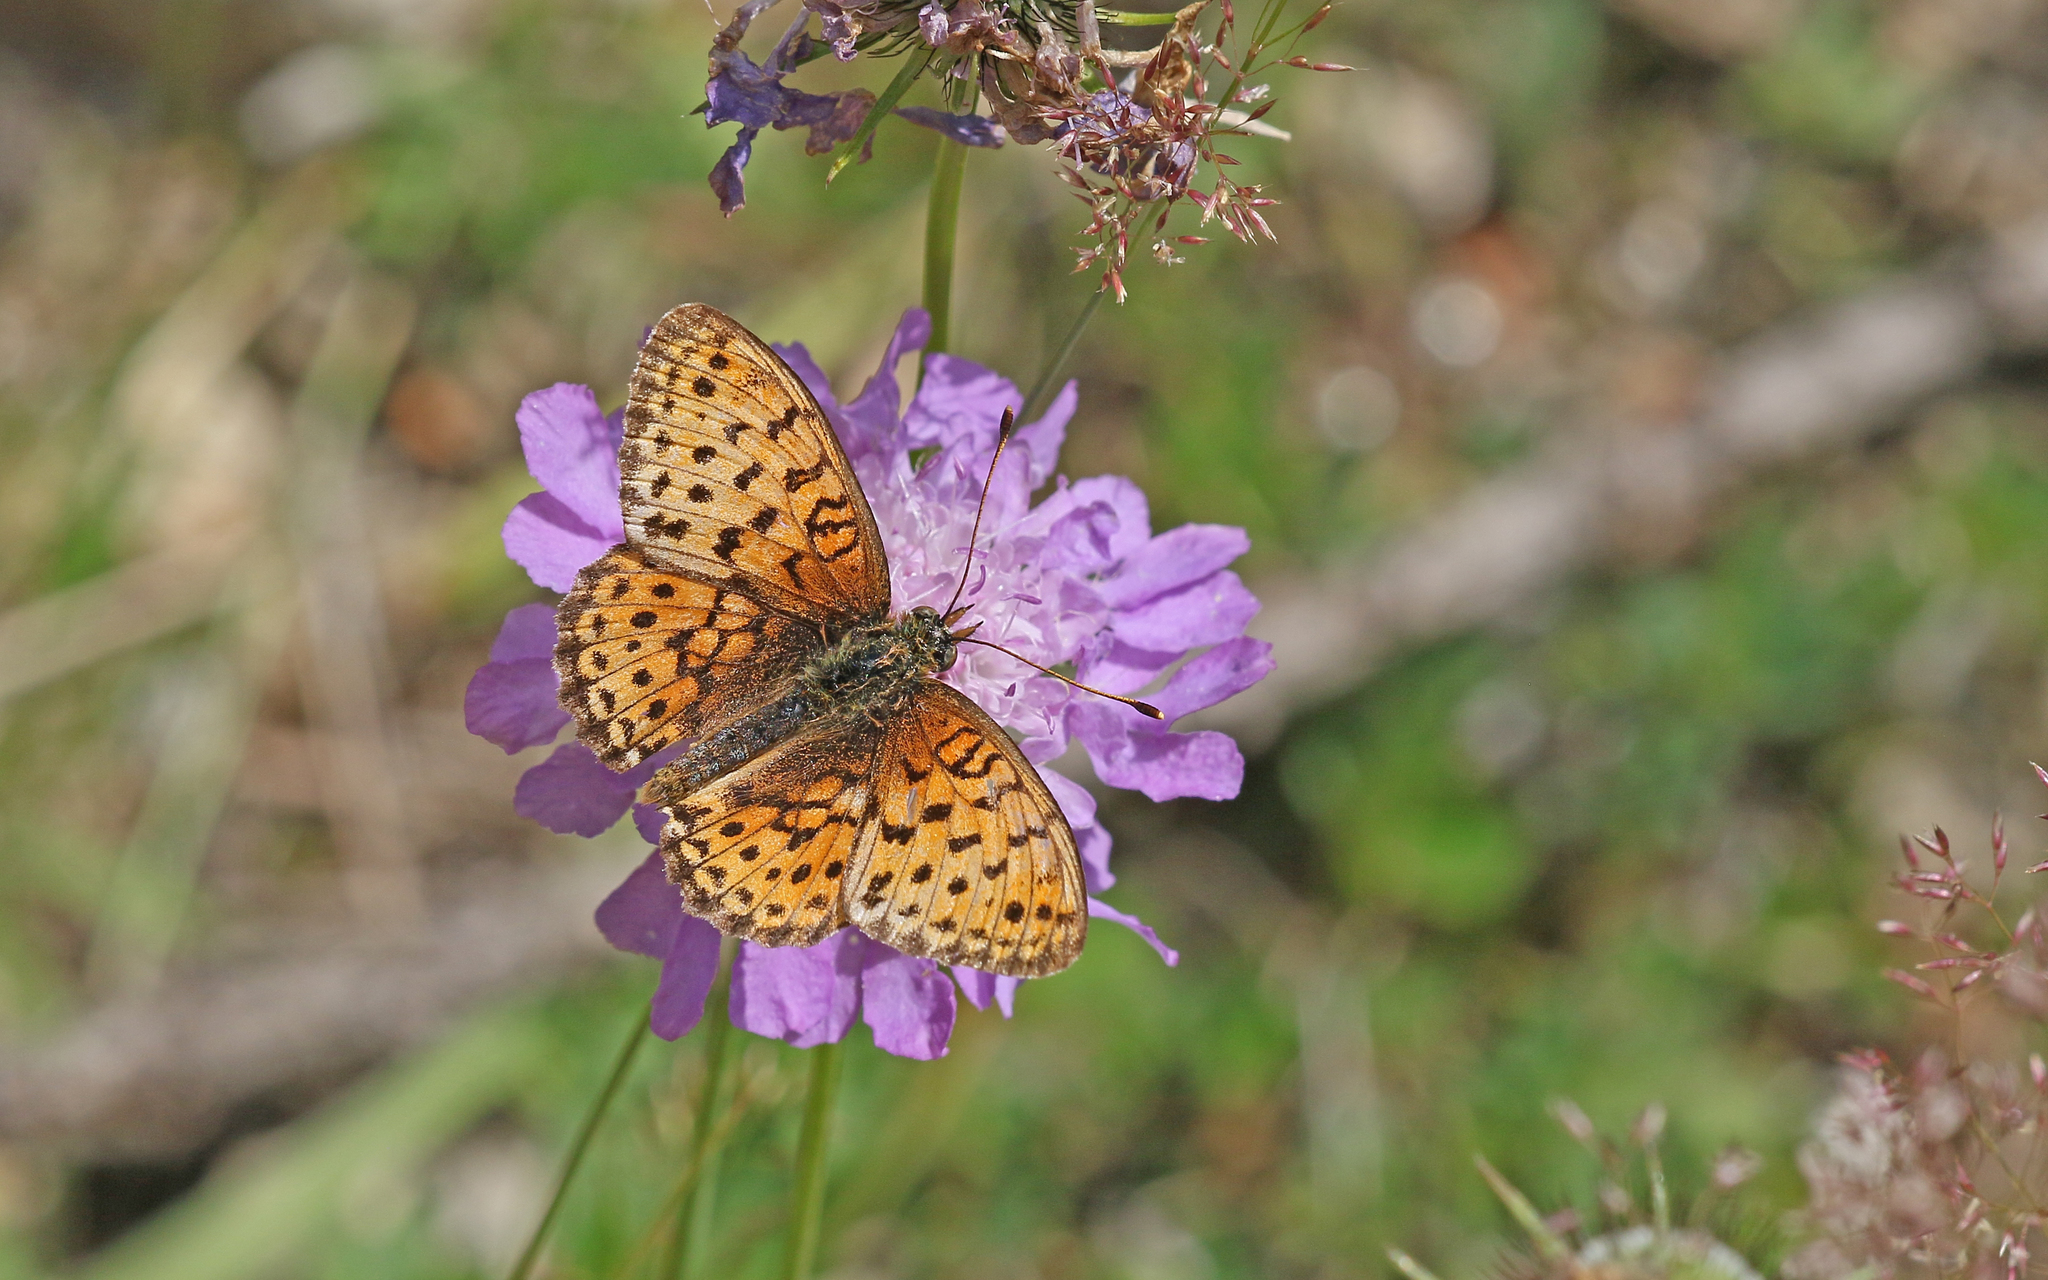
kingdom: Animalia
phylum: Arthropoda
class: Insecta
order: Lepidoptera
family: Nymphalidae
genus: Brenthis
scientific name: Brenthis ino
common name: Lesser marbled fritillary
